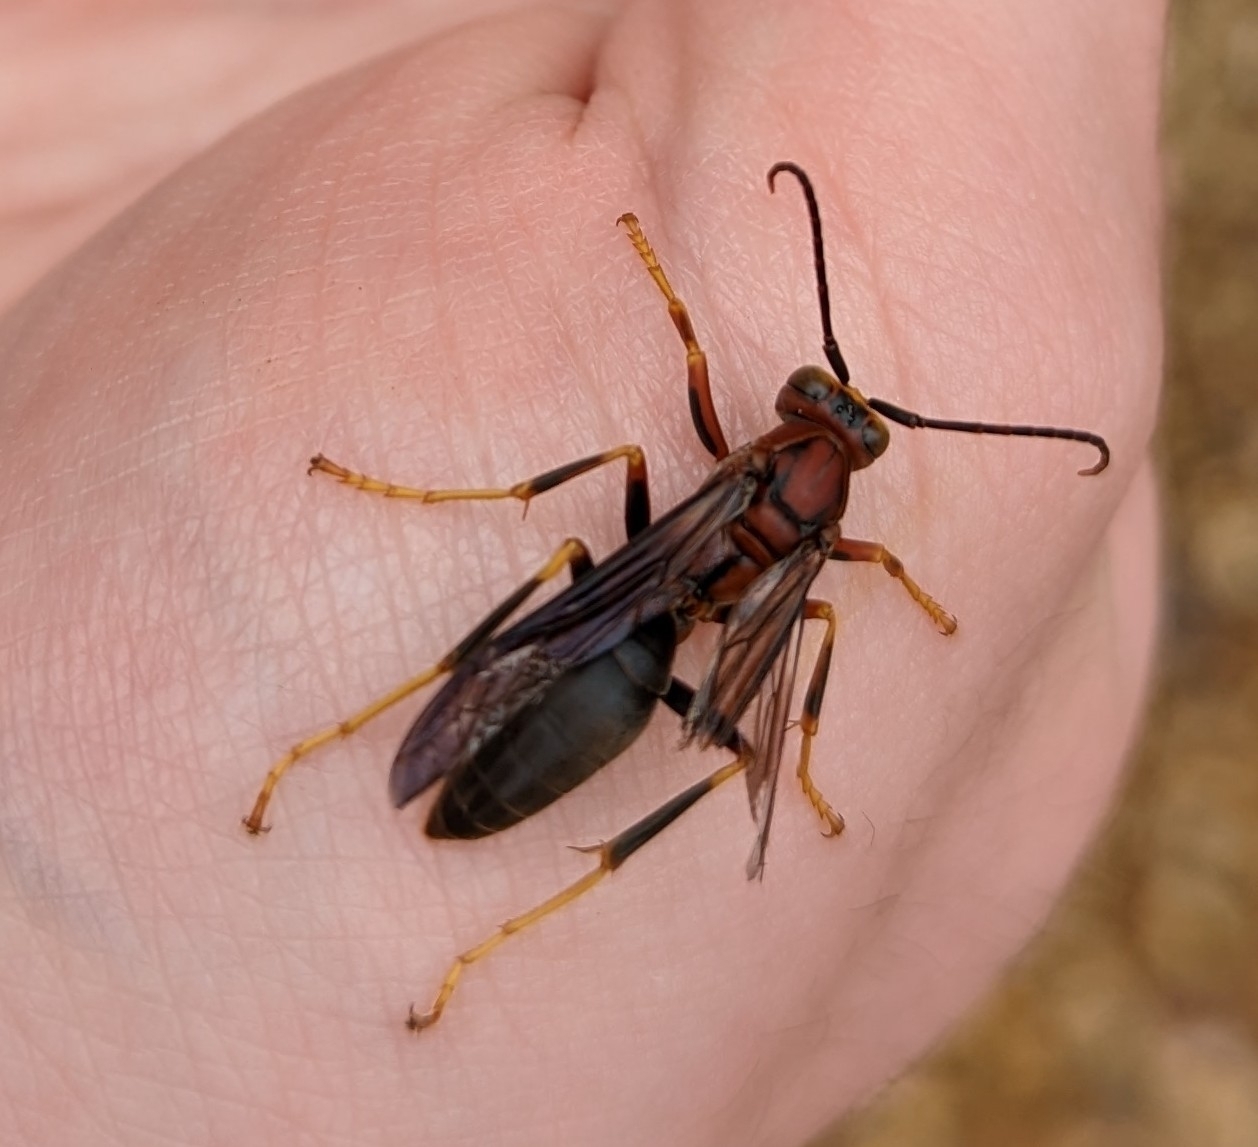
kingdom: Animalia
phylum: Arthropoda
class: Insecta
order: Hymenoptera
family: Eumenidae
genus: Polistes
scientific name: Polistes metricus
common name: Metric paper wasp
